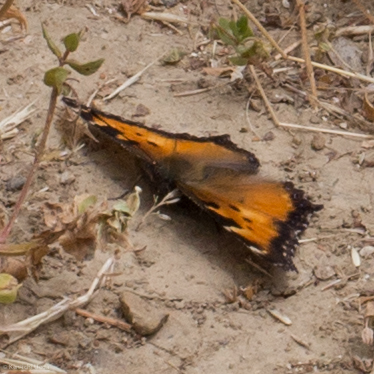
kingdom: Animalia
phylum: Arthropoda
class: Insecta
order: Lepidoptera
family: Nymphalidae
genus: Nymphalis
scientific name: Nymphalis californica
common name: California tortoiseshell
